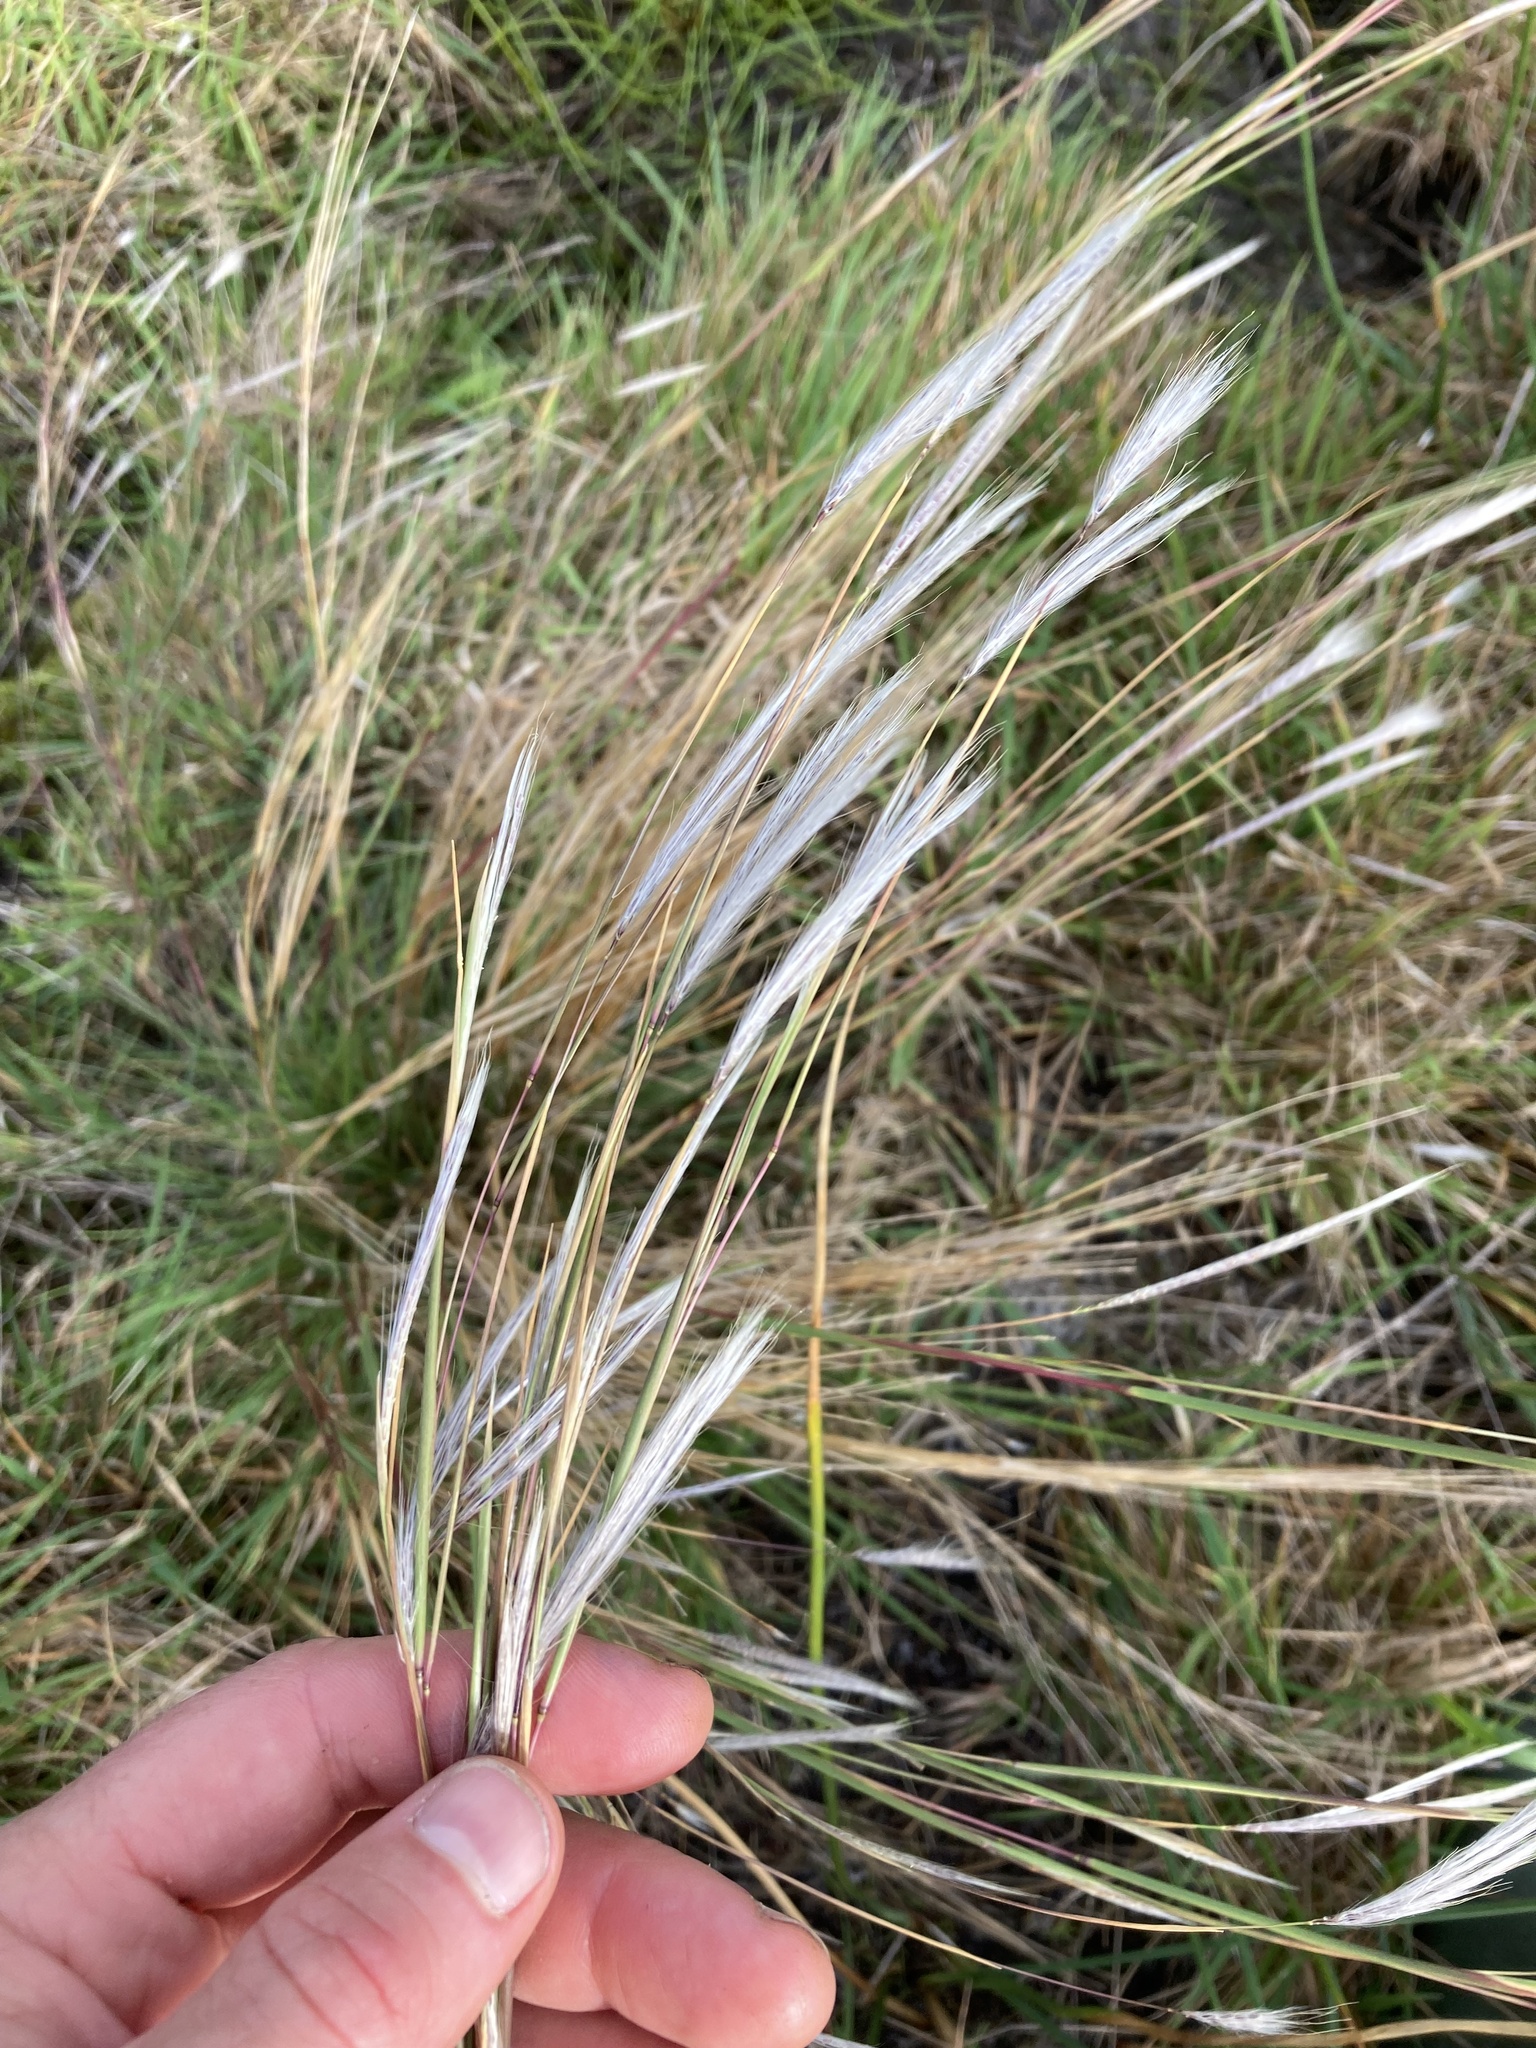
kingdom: Plantae
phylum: Tracheophyta
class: Liliopsida
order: Poales
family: Poaceae
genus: Andropogon
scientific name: Andropogon virginicus
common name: Broomsedge bluestem
